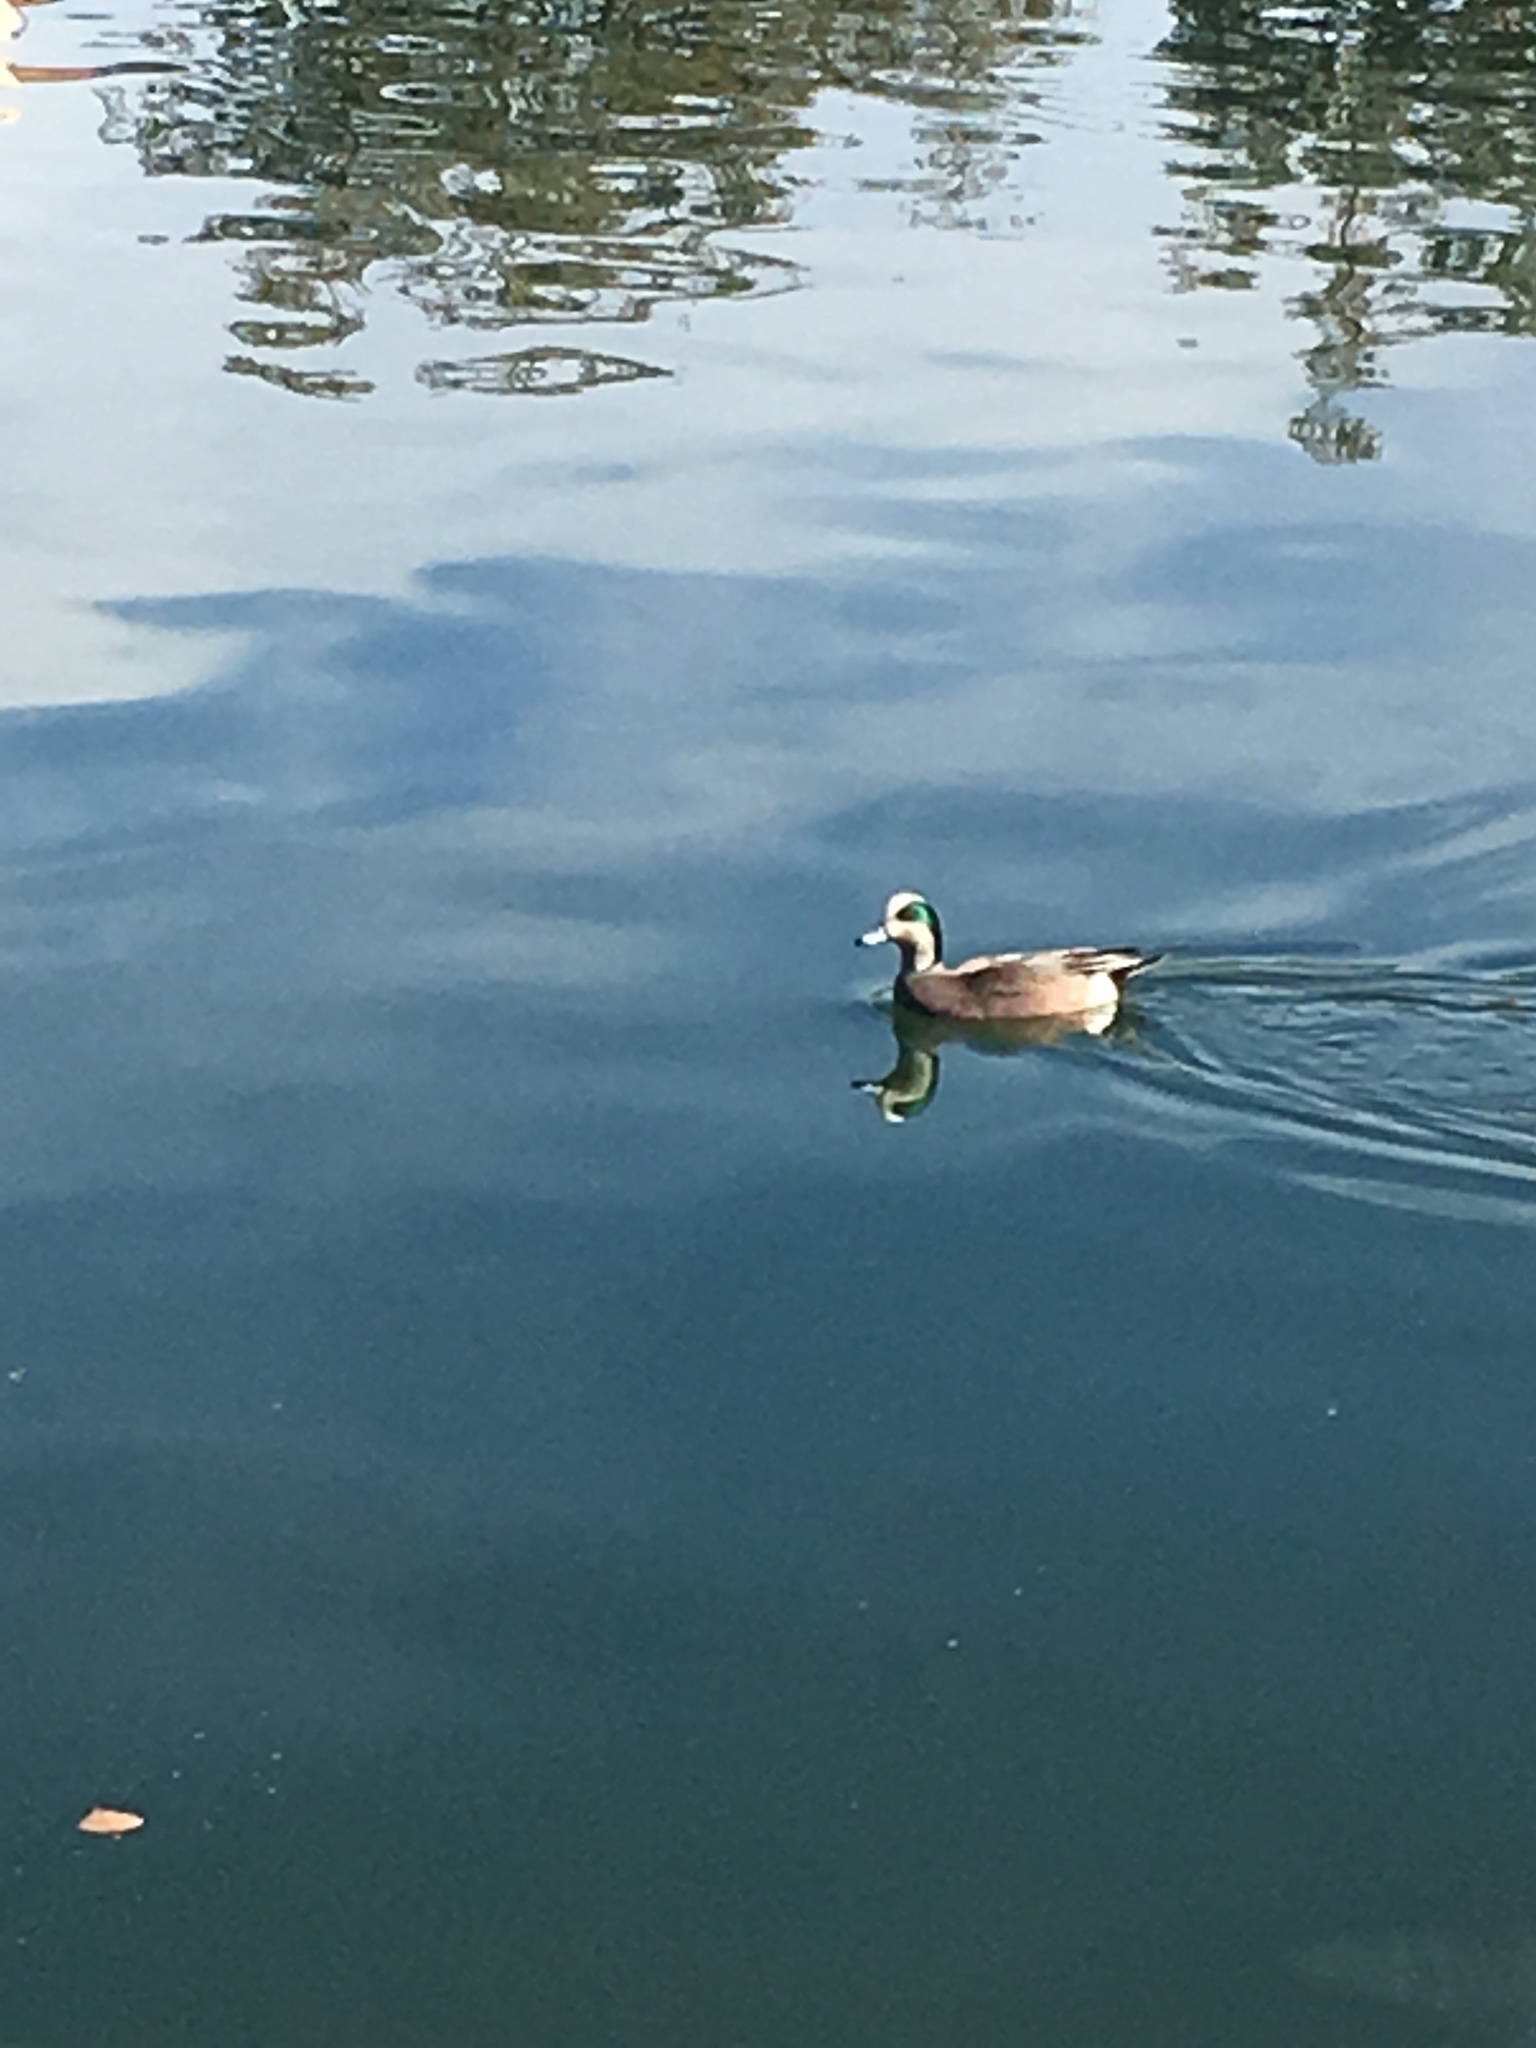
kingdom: Animalia
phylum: Chordata
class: Aves
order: Anseriformes
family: Anatidae
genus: Mareca
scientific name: Mareca americana
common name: American wigeon
